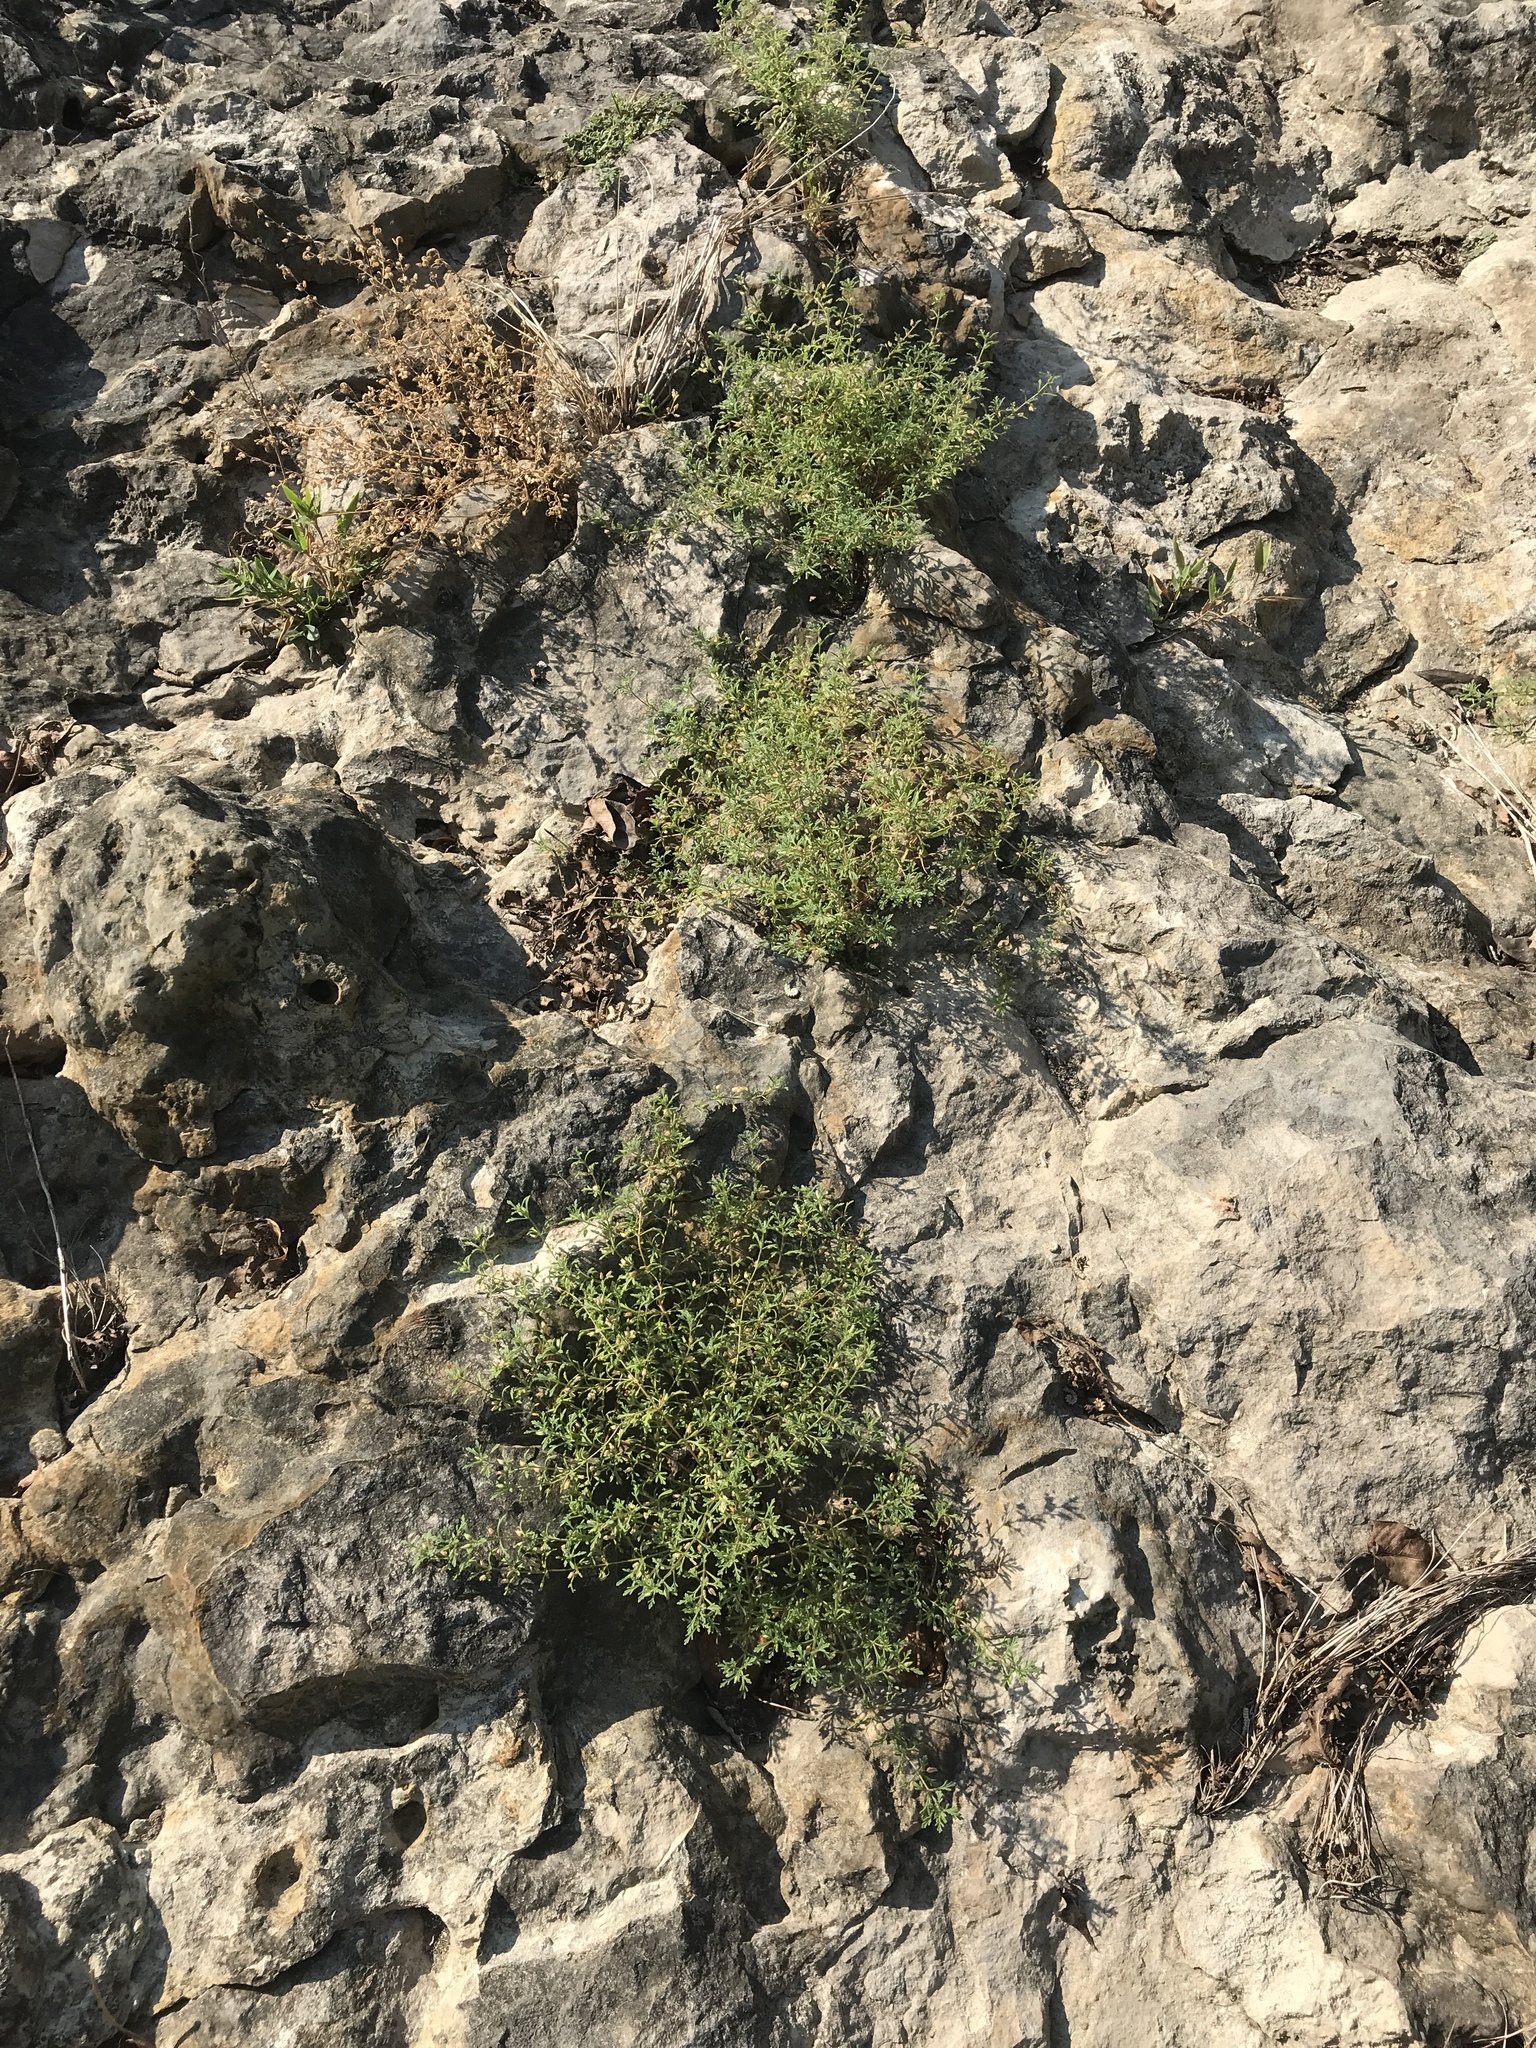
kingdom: Plantae
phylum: Tracheophyta
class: Magnoliopsida
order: Lamiales
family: Plantaginaceae
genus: Leucospora
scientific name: Leucospora multifida
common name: Narrow-leaf paleseed
